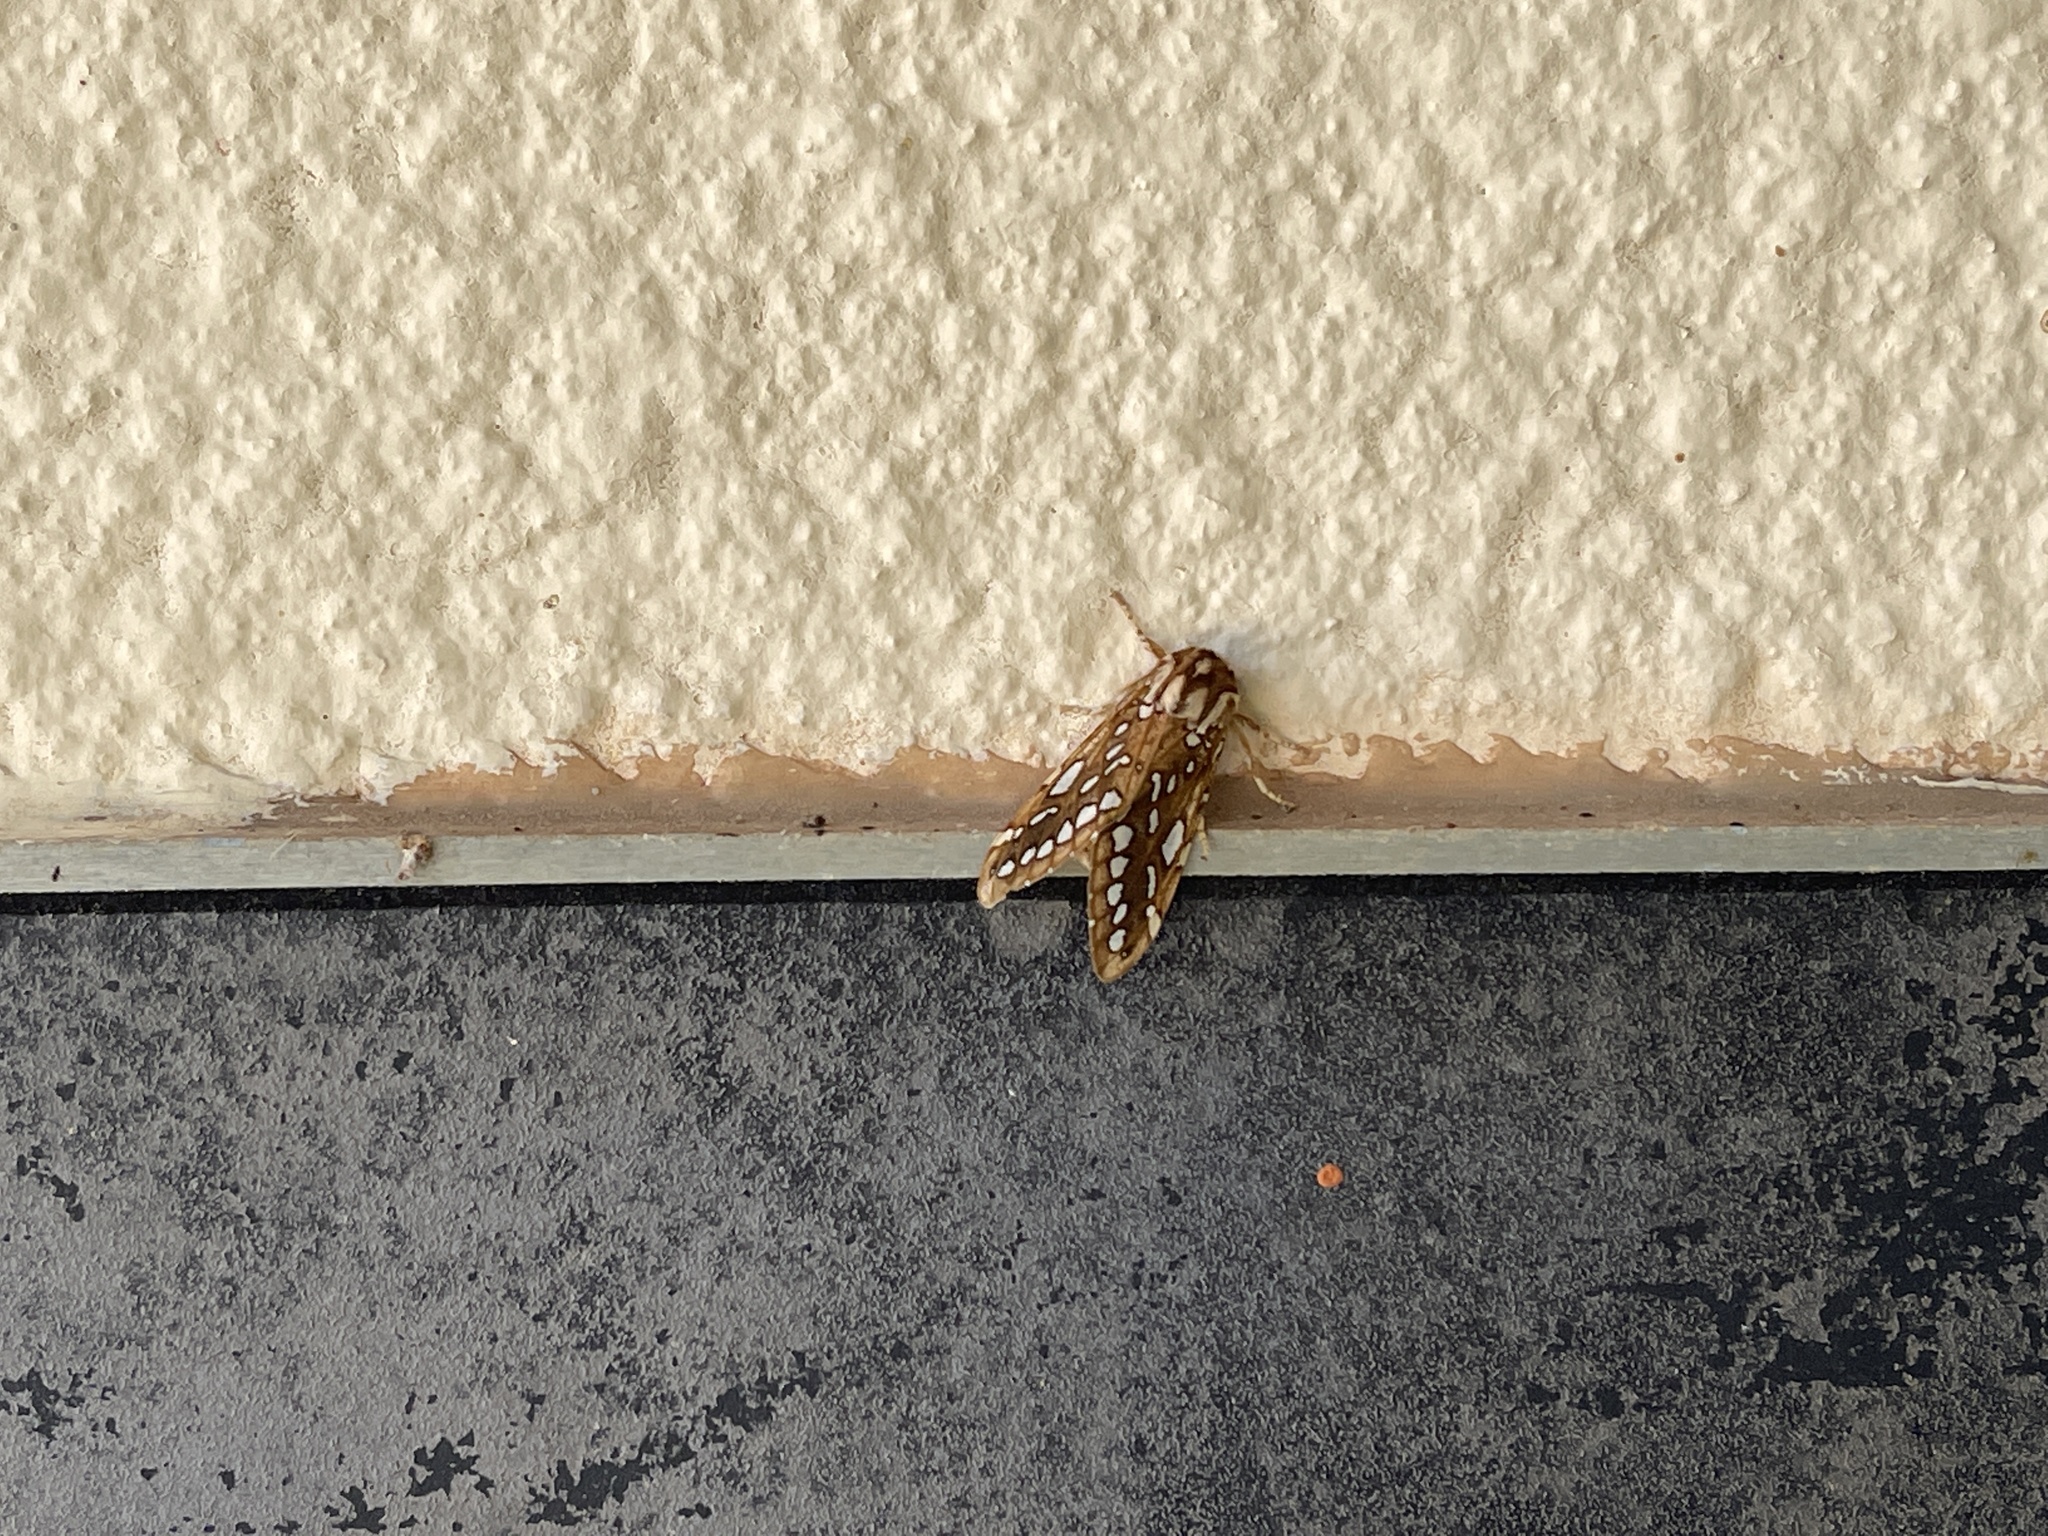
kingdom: Animalia
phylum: Arthropoda
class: Insecta
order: Lepidoptera
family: Erebidae
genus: Lophocampa
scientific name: Lophocampa argentata
